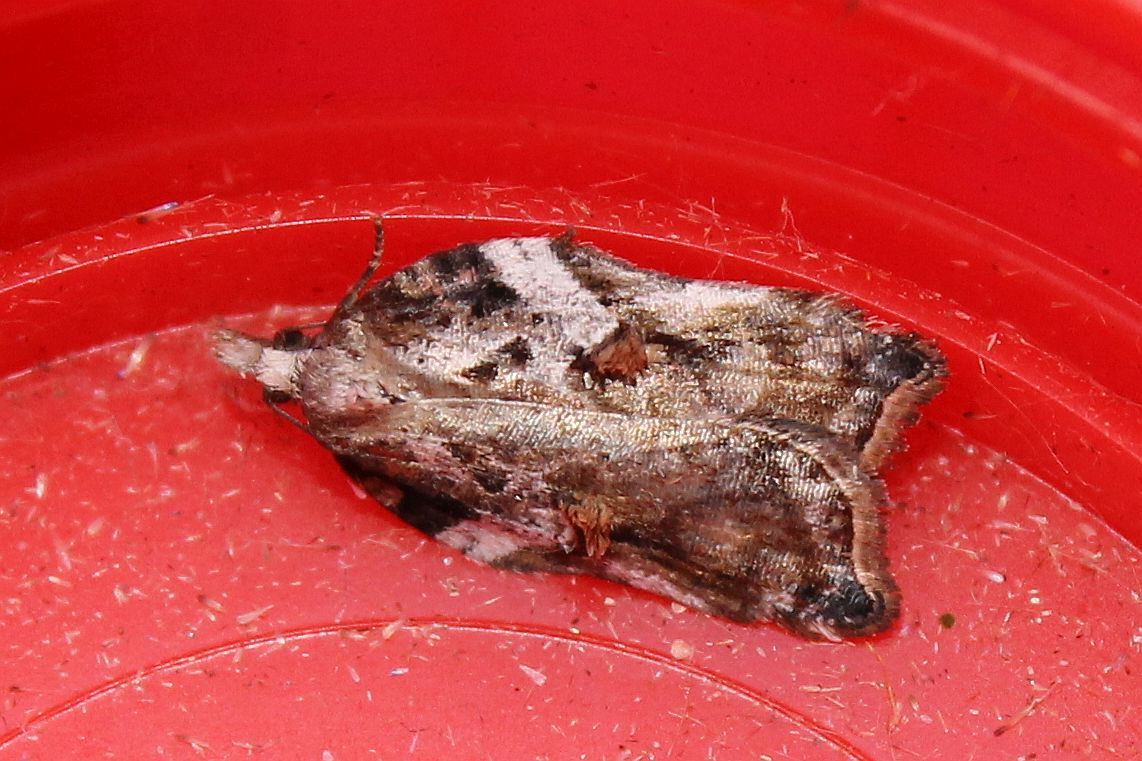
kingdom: Animalia
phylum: Arthropoda
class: Insecta
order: Lepidoptera
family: Tortricidae
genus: Acleris
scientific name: Acleris cristana
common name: Tufted button
